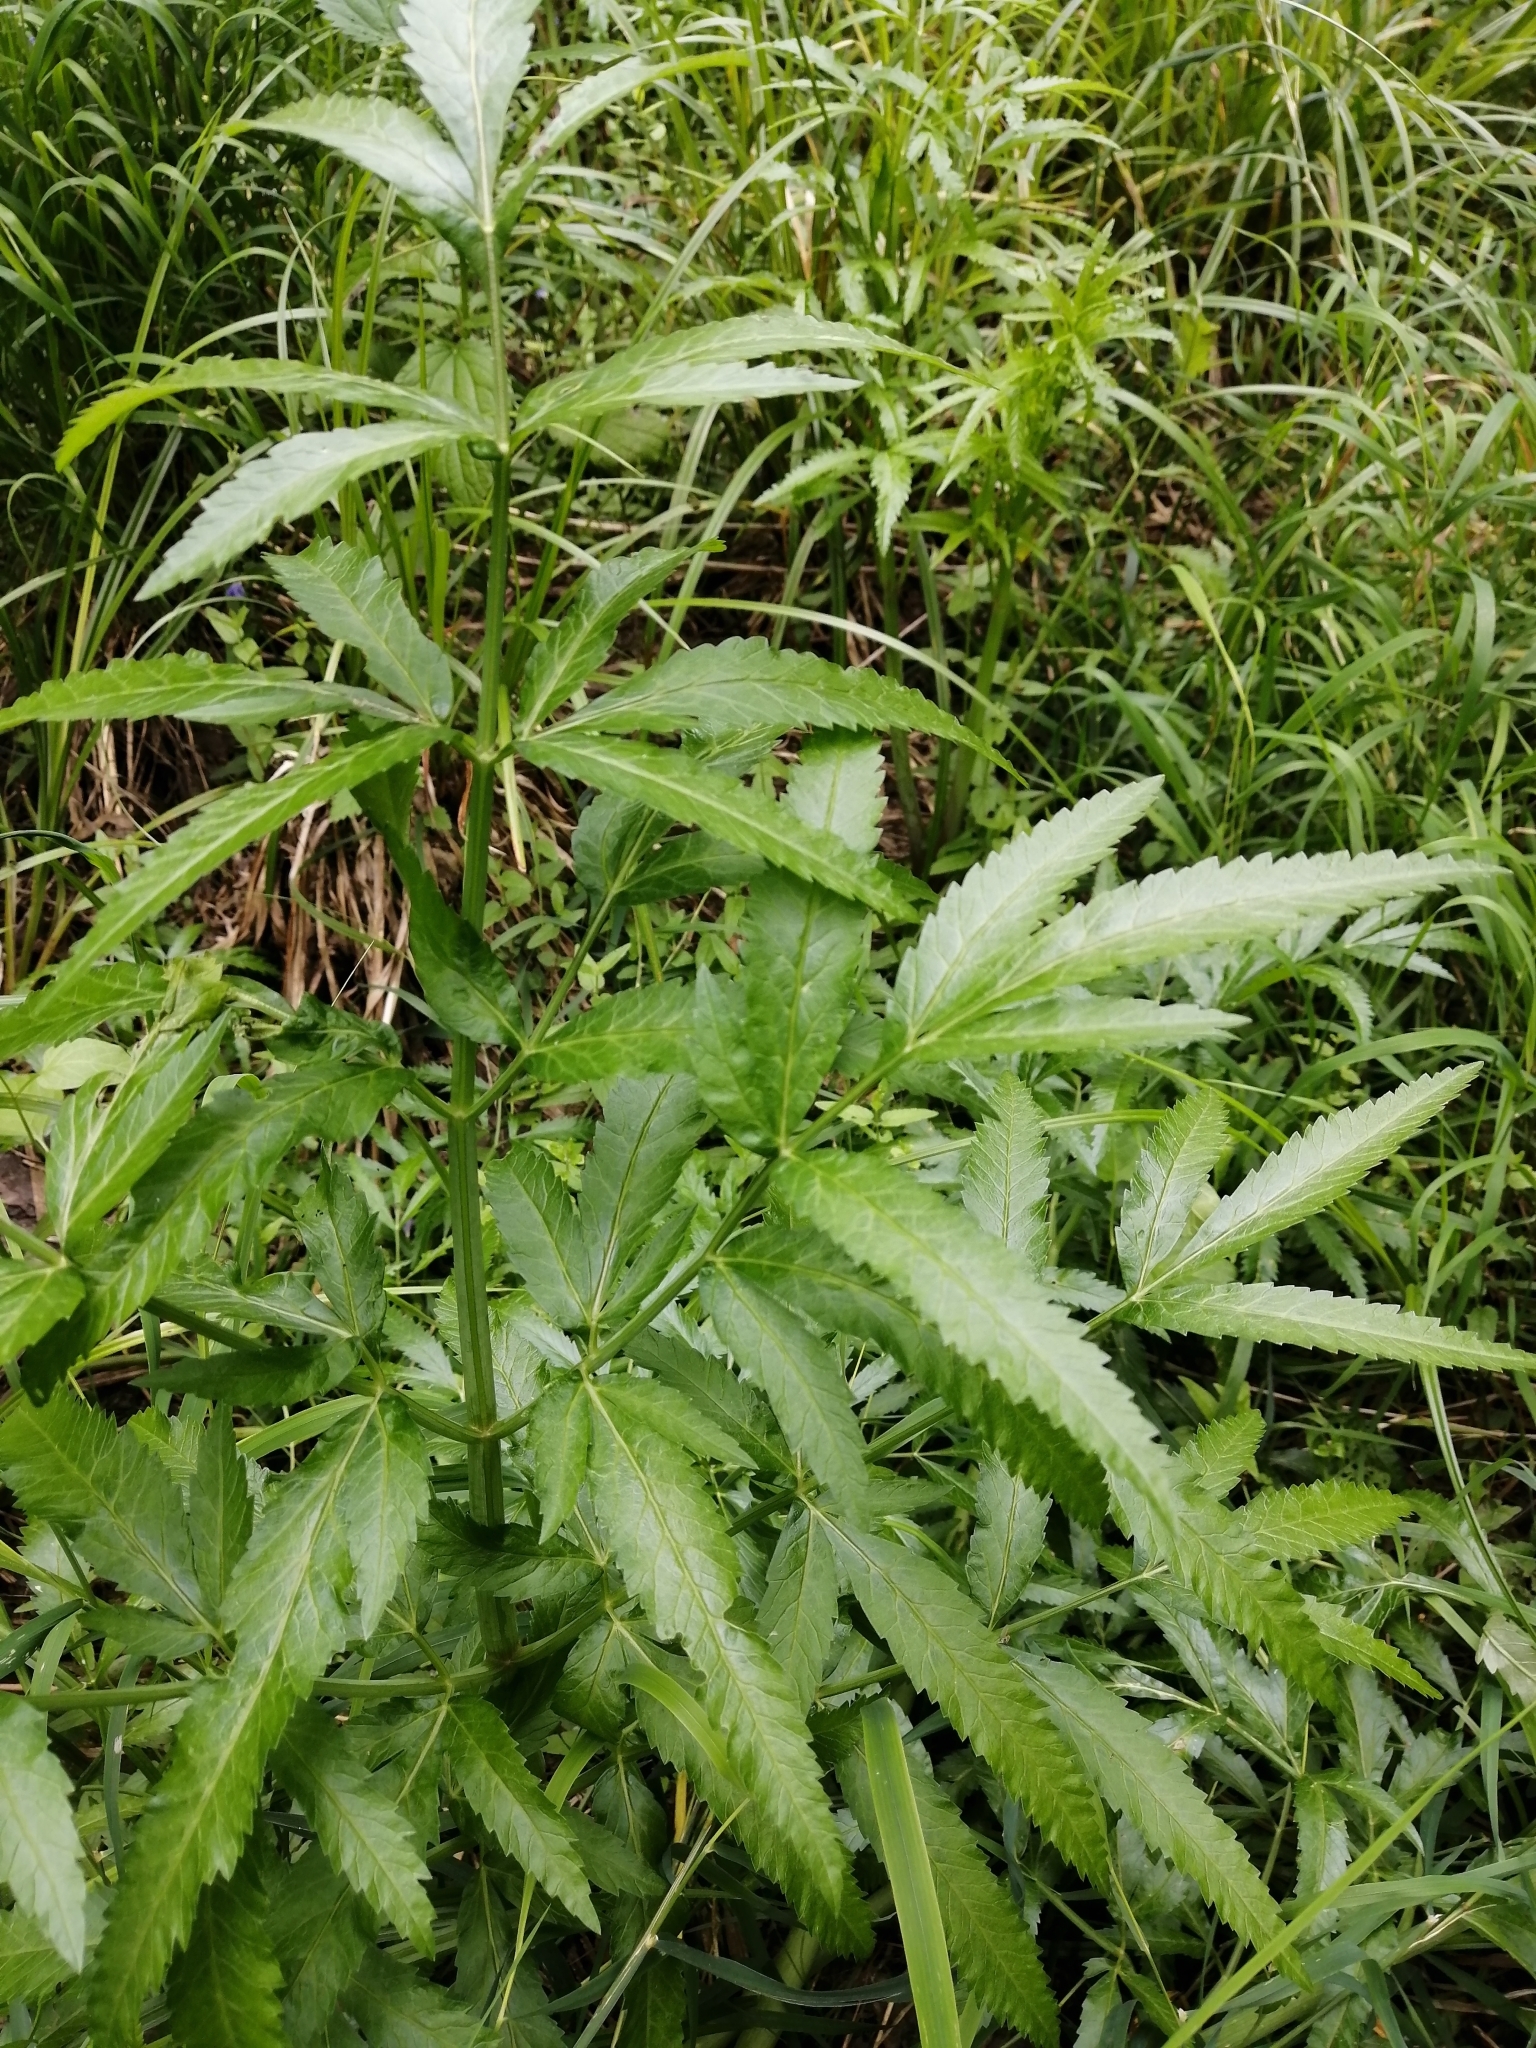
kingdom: Plantae
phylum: Tracheophyta
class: Magnoliopsida
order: Apiales
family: Apiaceae
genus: Cicuta
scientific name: Cicuta virosa
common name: Cowbane
